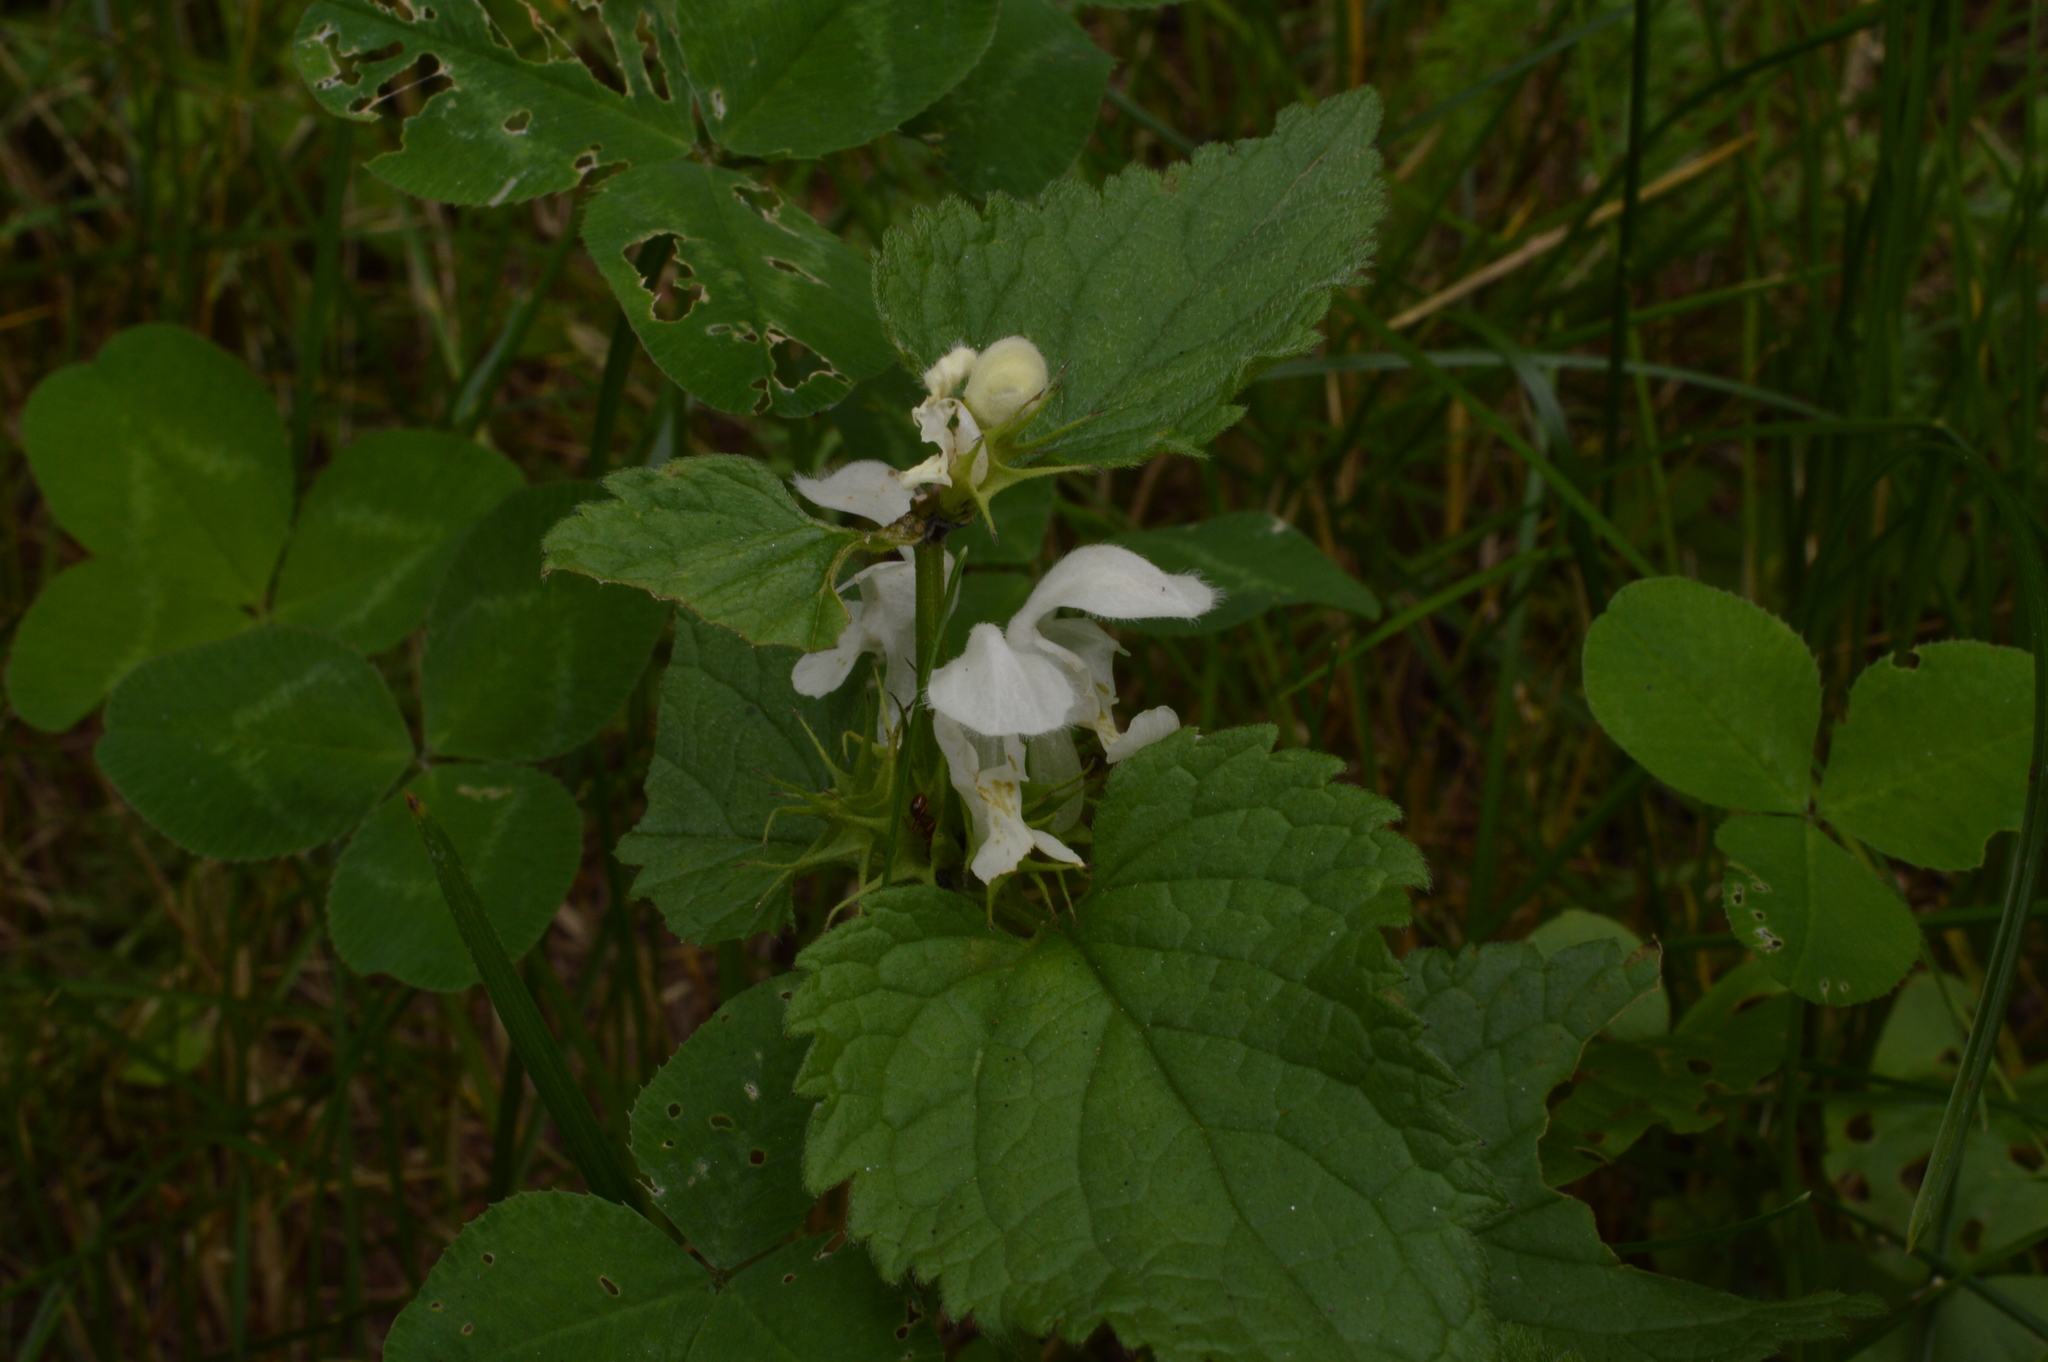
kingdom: Plantae
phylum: Tracheophyta
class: Magnoliopsida
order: Lamiales
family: Lamiaceae
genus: Lamium
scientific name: Lamium album
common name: White dead-nettle
